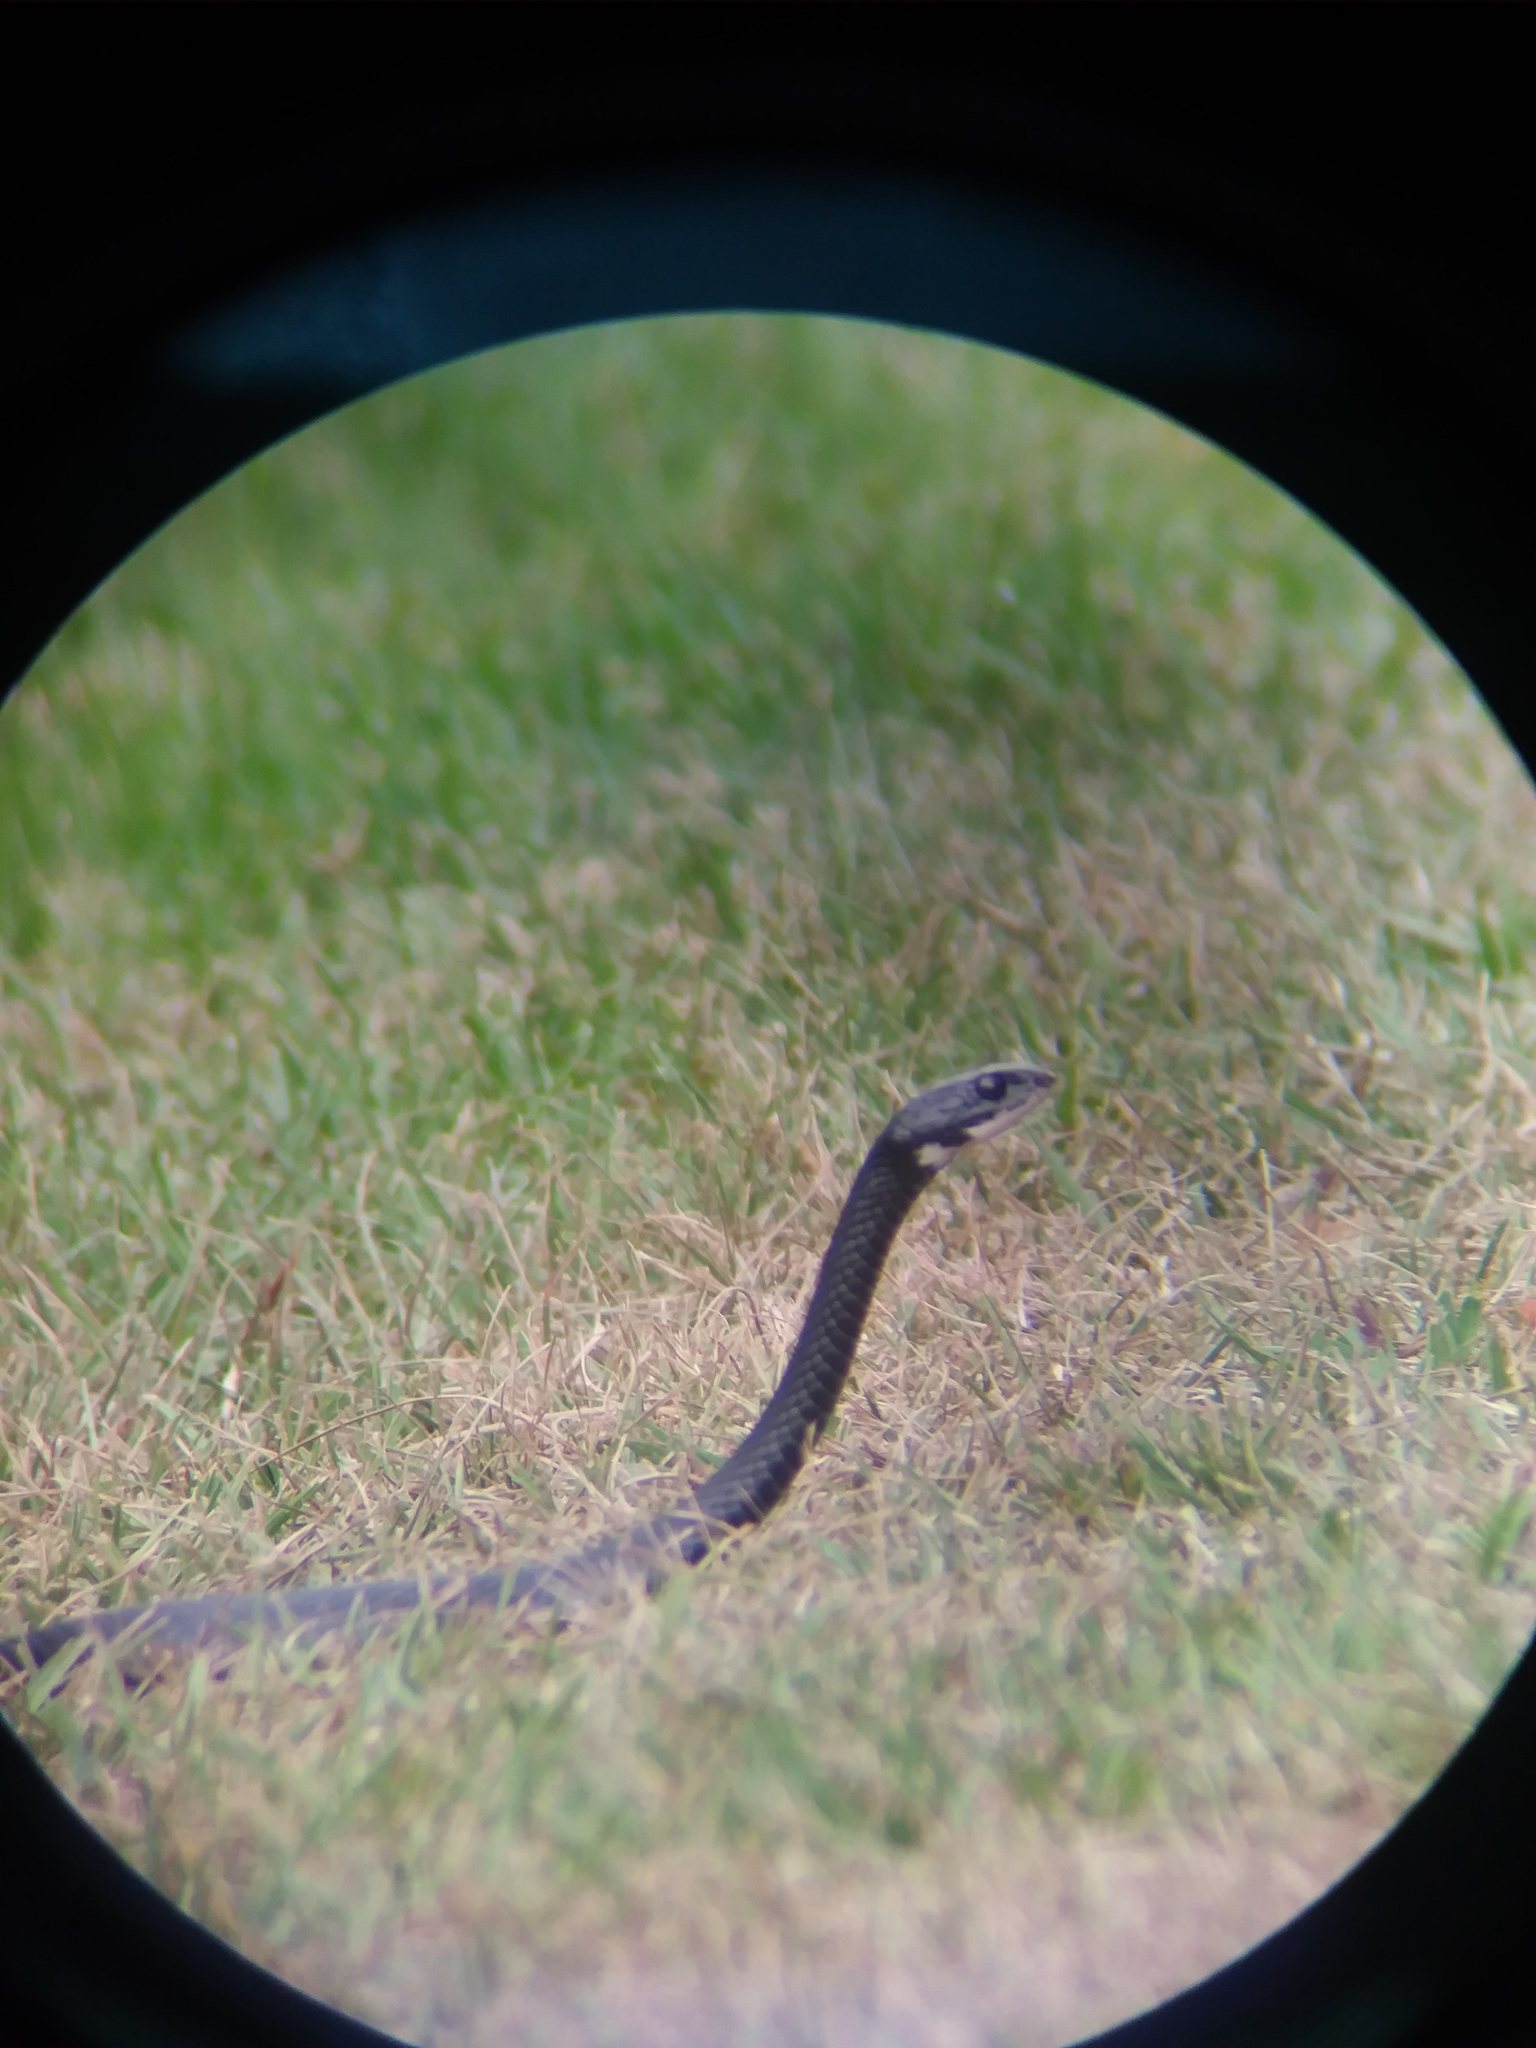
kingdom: Animalia
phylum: Chordata
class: Squamata
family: Colubridae
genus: Coluber
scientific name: Coluber constrictor
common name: Eastern racer
